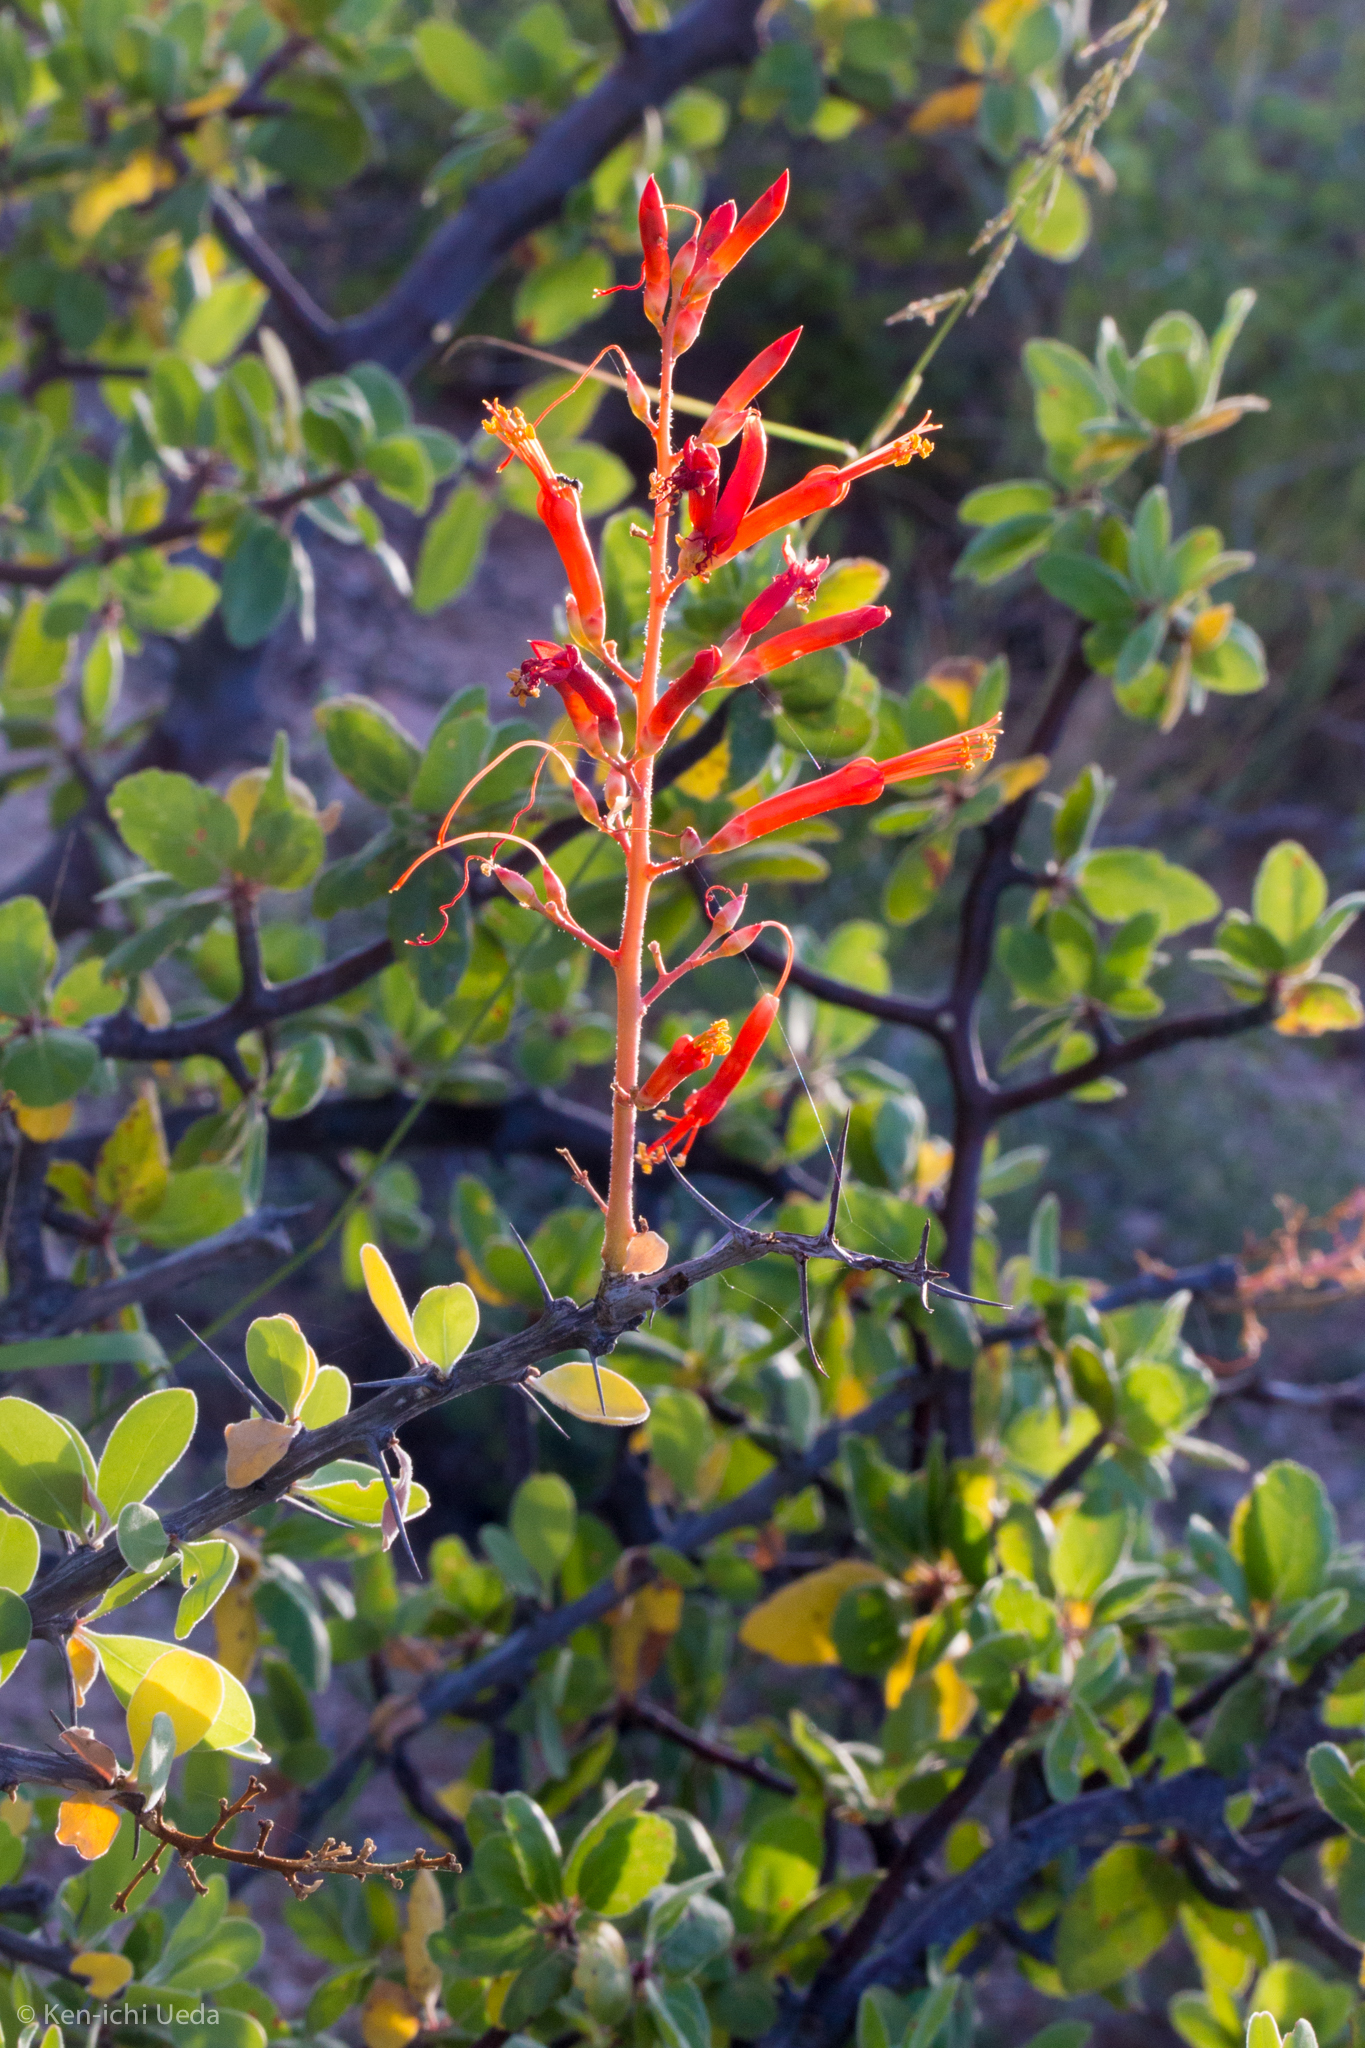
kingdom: Plantae
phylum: Tracheophyta
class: Magnoliopsida
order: Ericales
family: Fouquieriaceae
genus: Fouquieria
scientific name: Fouquieria diguetii
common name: Adam's tree
